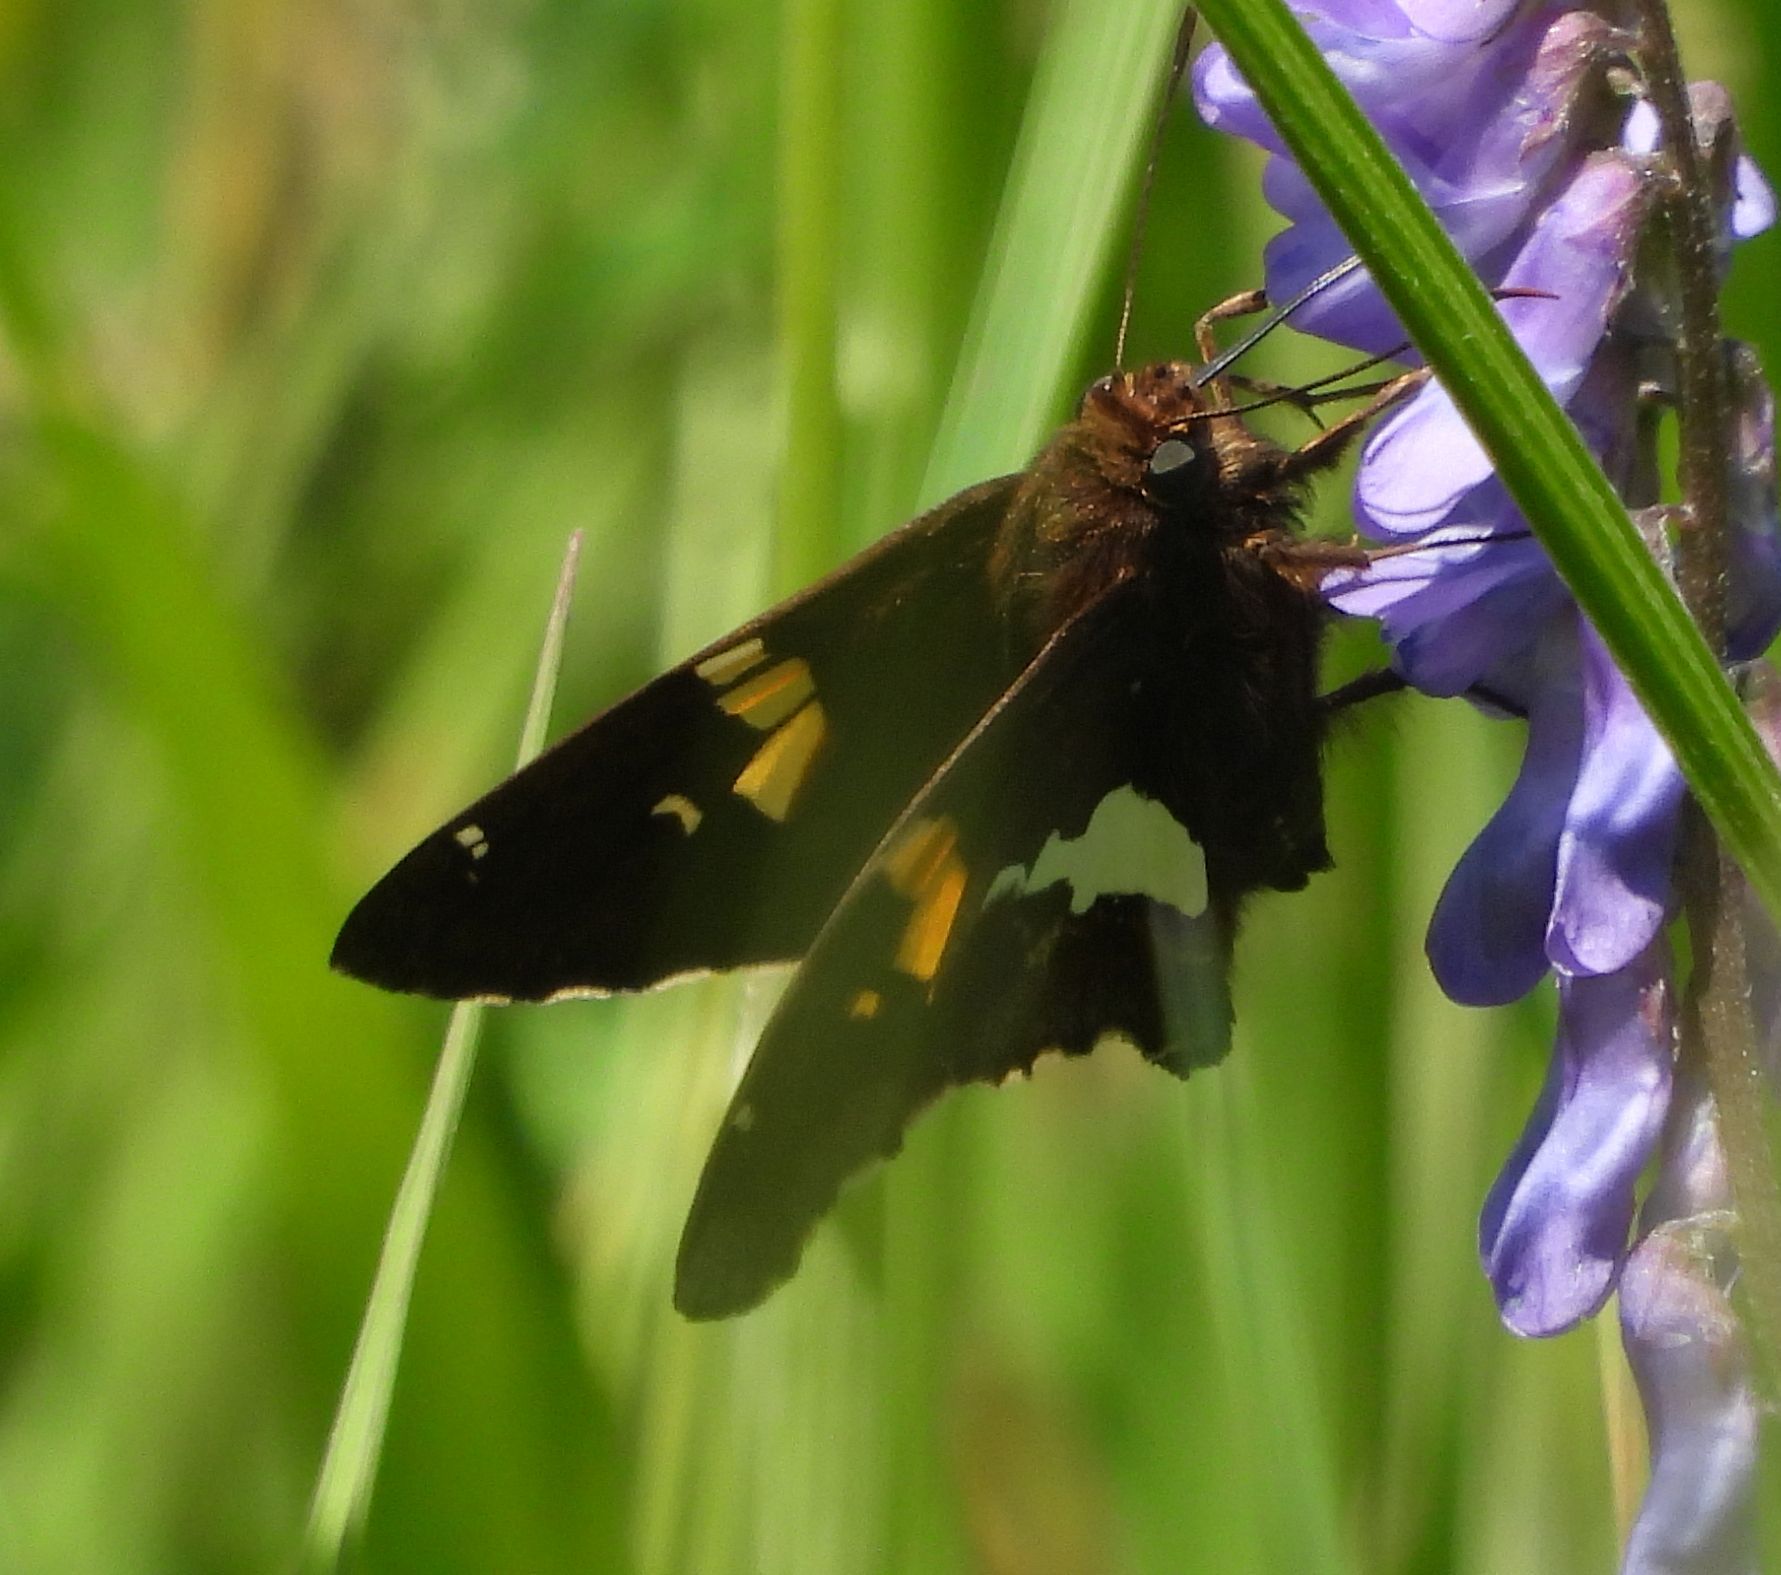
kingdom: Animalia
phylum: Arthropoda
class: Insecta
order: Lepidoptera
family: Hesperiidae
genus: Epargyreus
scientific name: Epargyreus clarus
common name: Silver-spotted skipper
